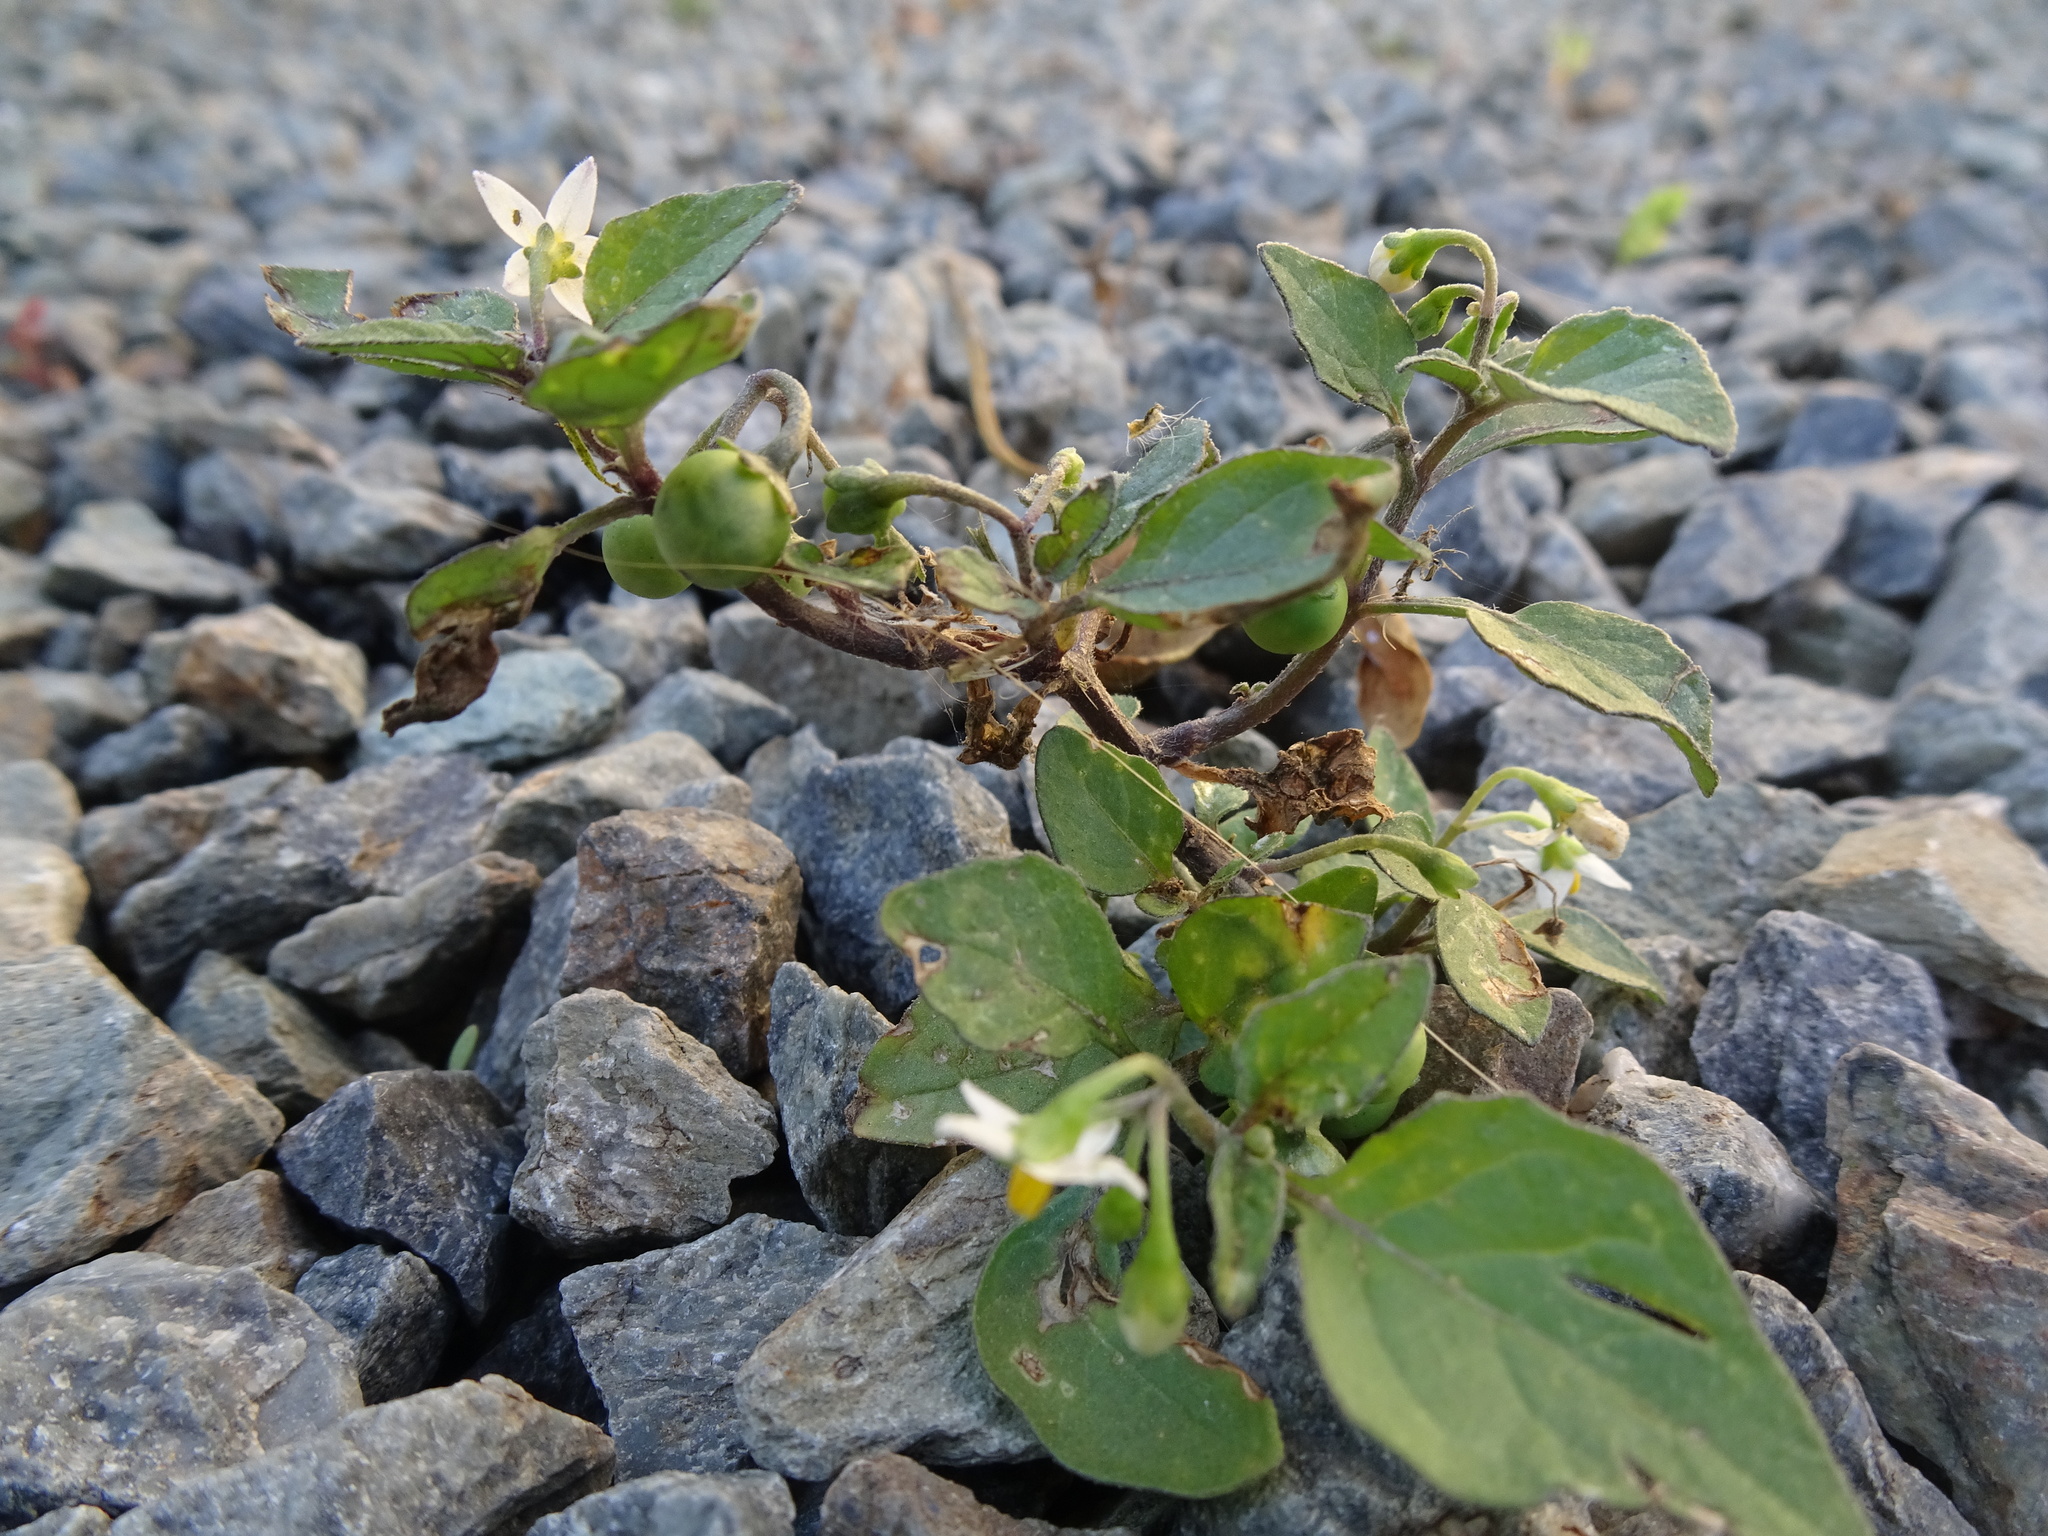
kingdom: Plantae
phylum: Tracheophyta
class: Magnoliopsida
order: Solanales
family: Solanaceae
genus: Solanum
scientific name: Solanum nigrum
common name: Black nightshade
